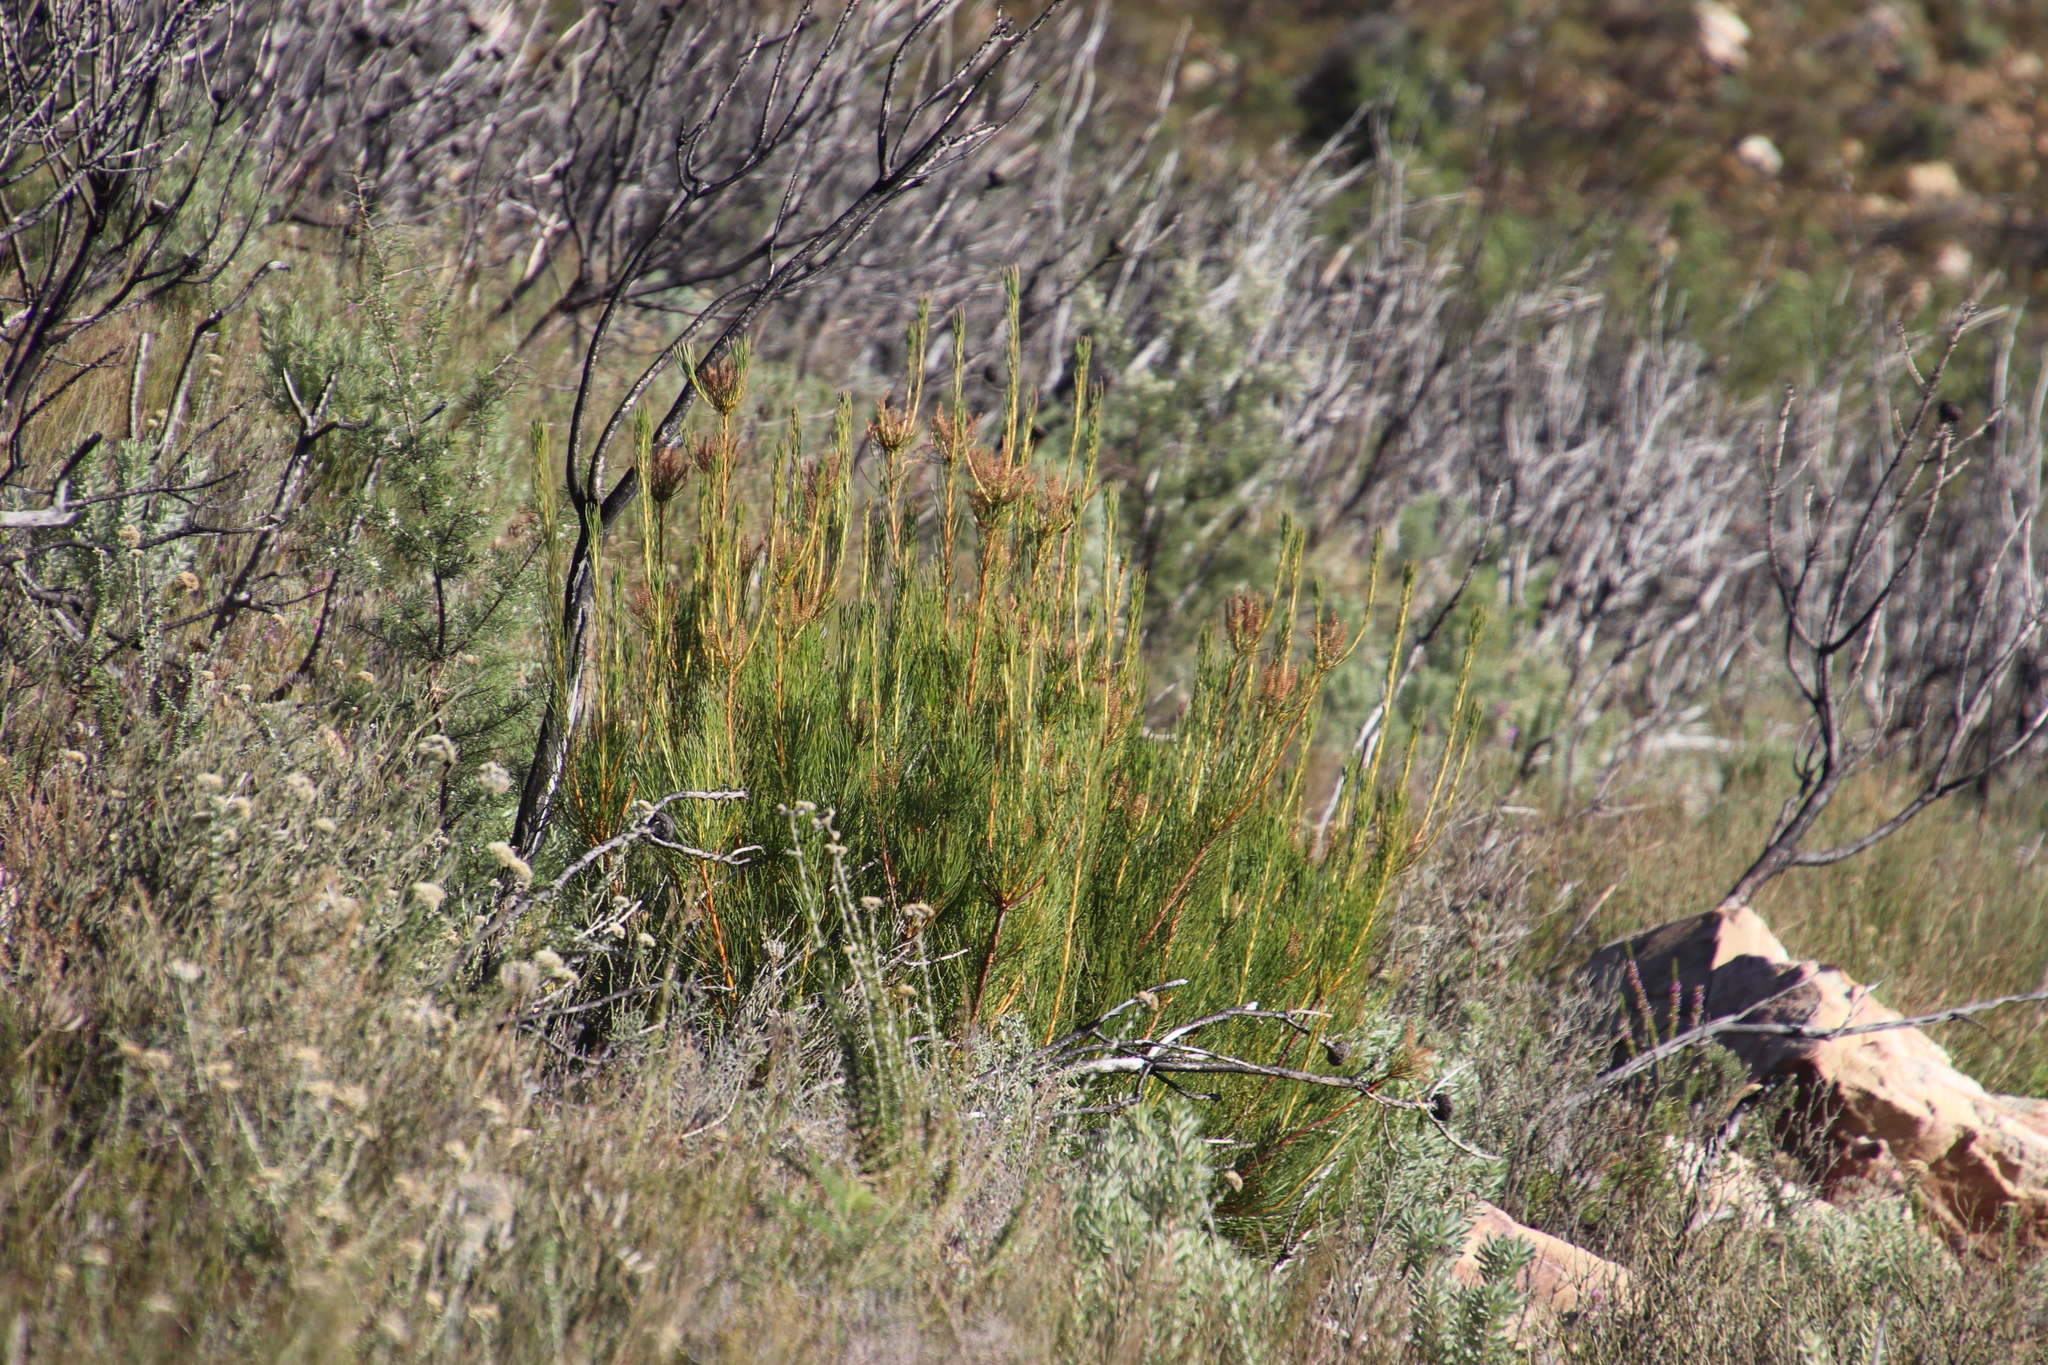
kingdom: Plantae
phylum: Tracheophyta
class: Magnoliopsida
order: Proteales
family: Proteaceae
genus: Aulax
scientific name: Aulax pallasia
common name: Needle-leaf featherbush
